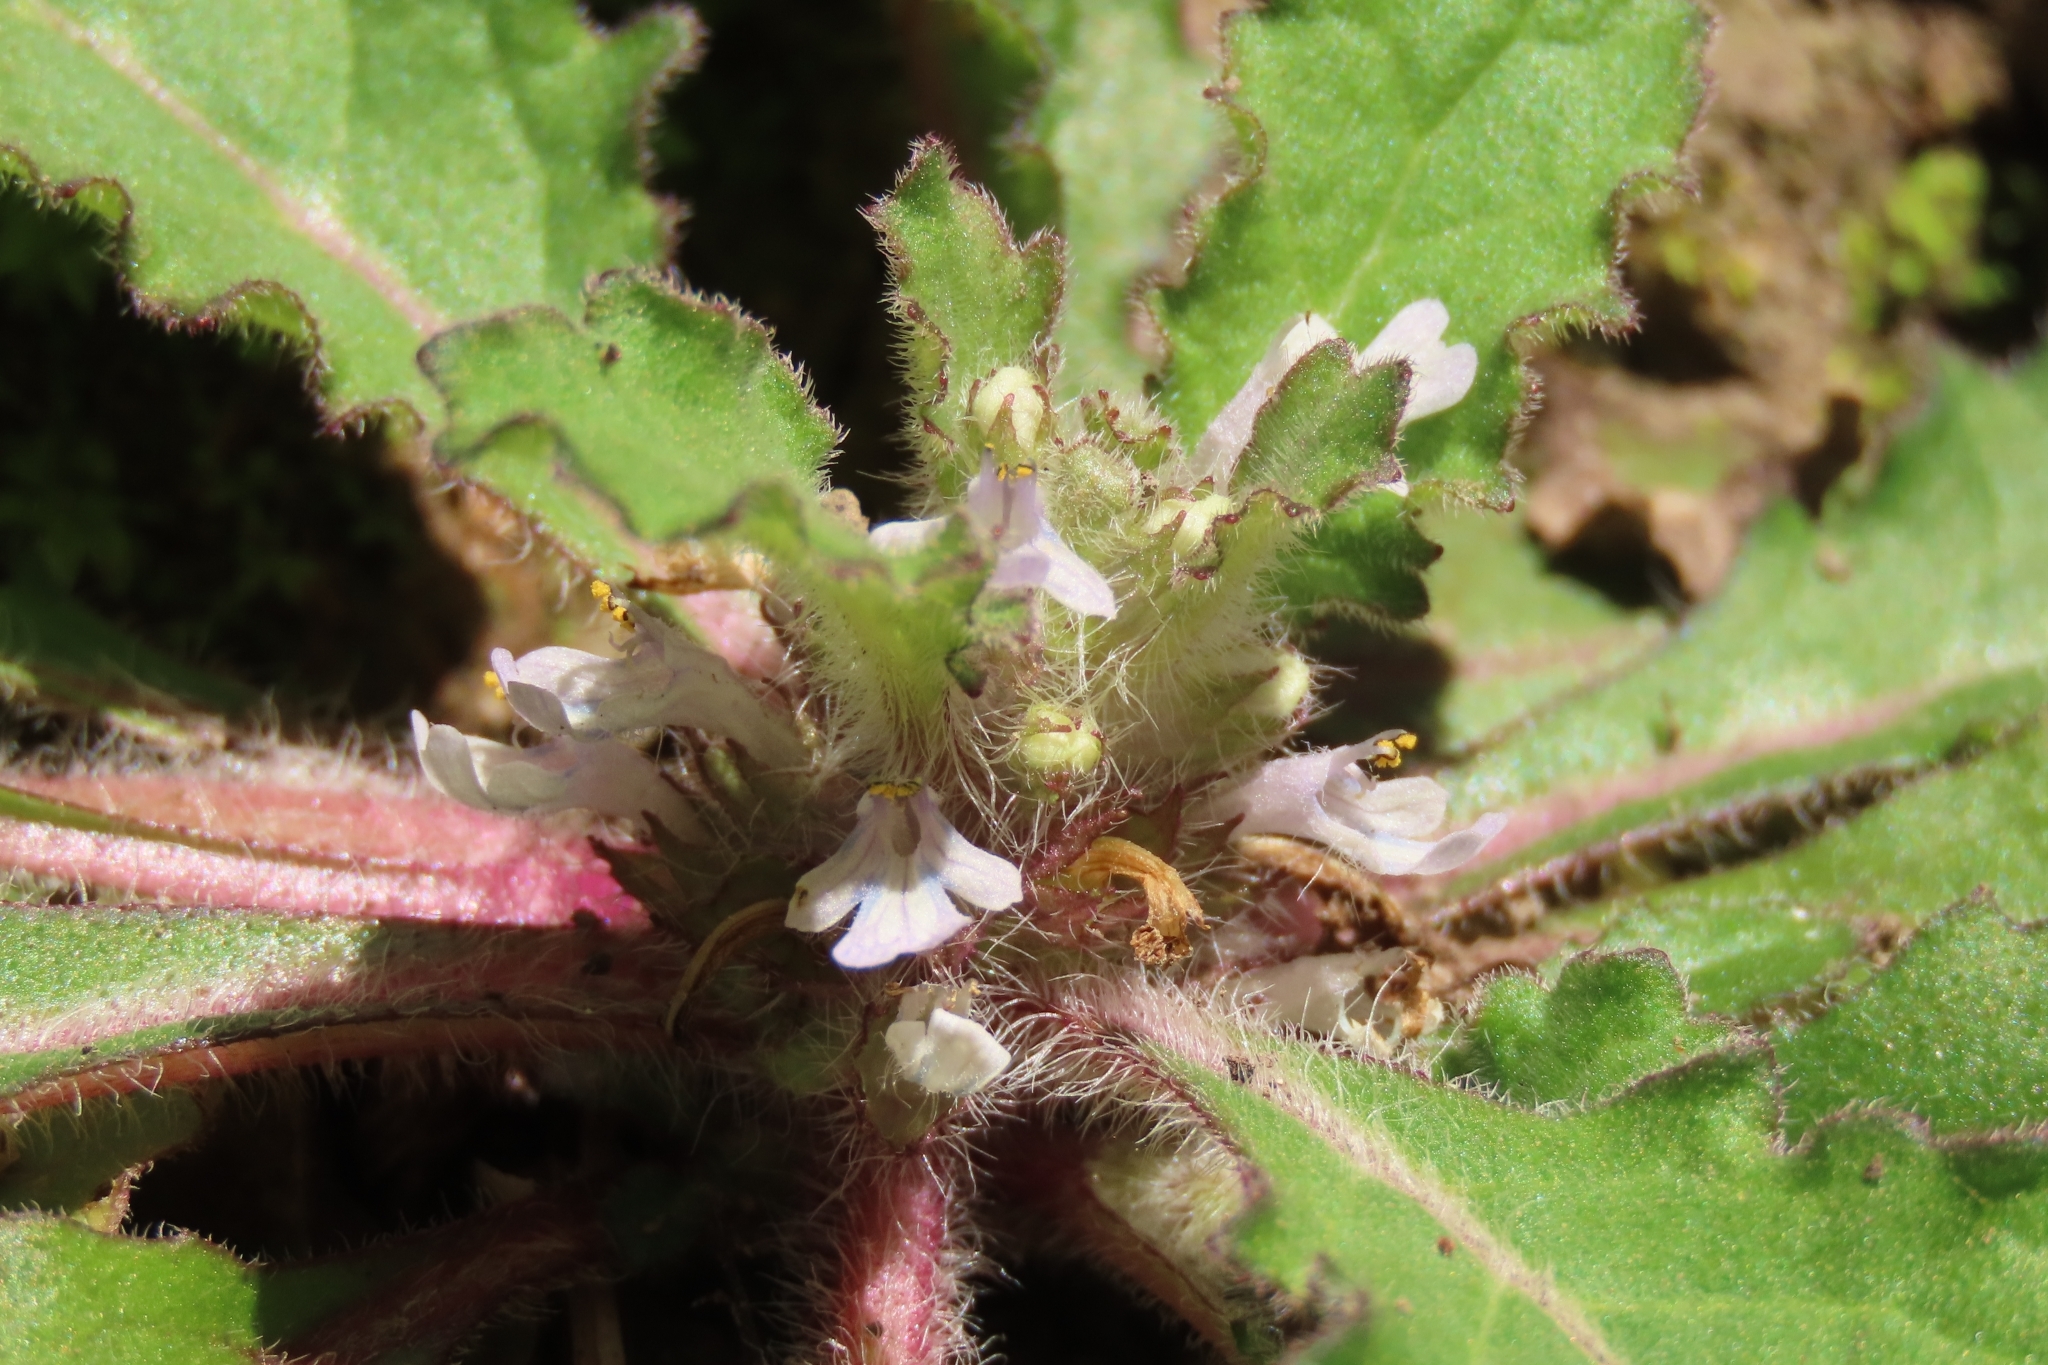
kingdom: Plantae
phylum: Tracheophyta
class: Magnoliopsida
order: Lamiales
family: Lamiaceae
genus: Ajuga
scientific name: Ajuga taiwanensis
